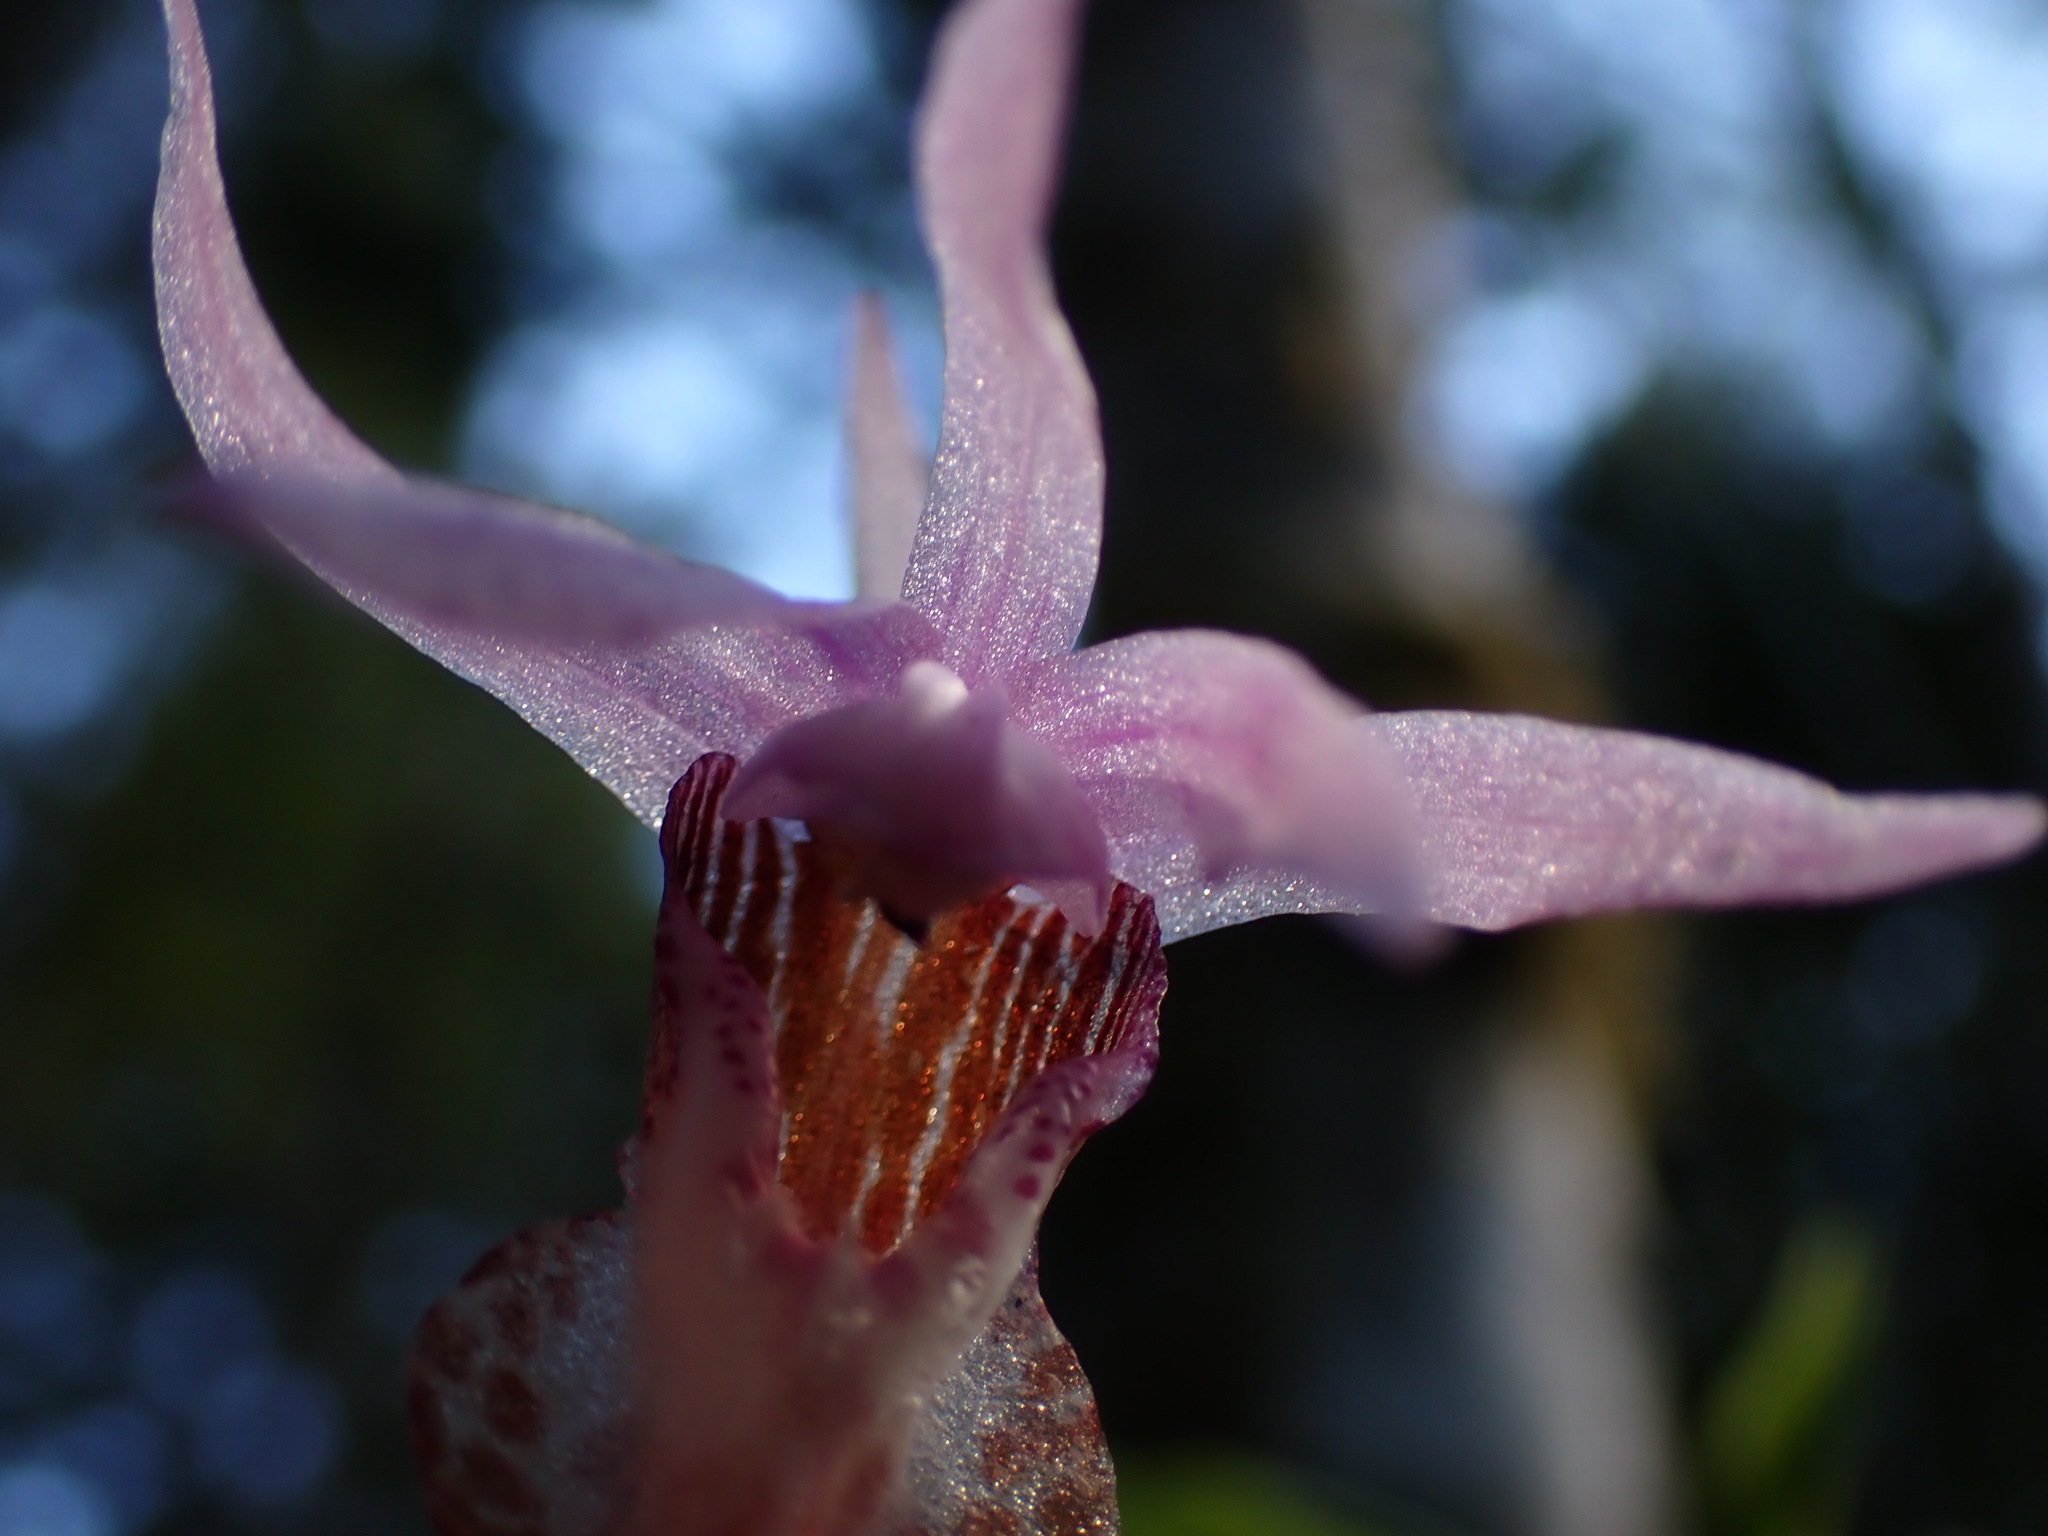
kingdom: Plantae
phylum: Tracheophyta
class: Liliopsida
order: Asparagales
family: Orchidaceae
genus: Calypso
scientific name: Calypso bulbosa
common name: Calypso
